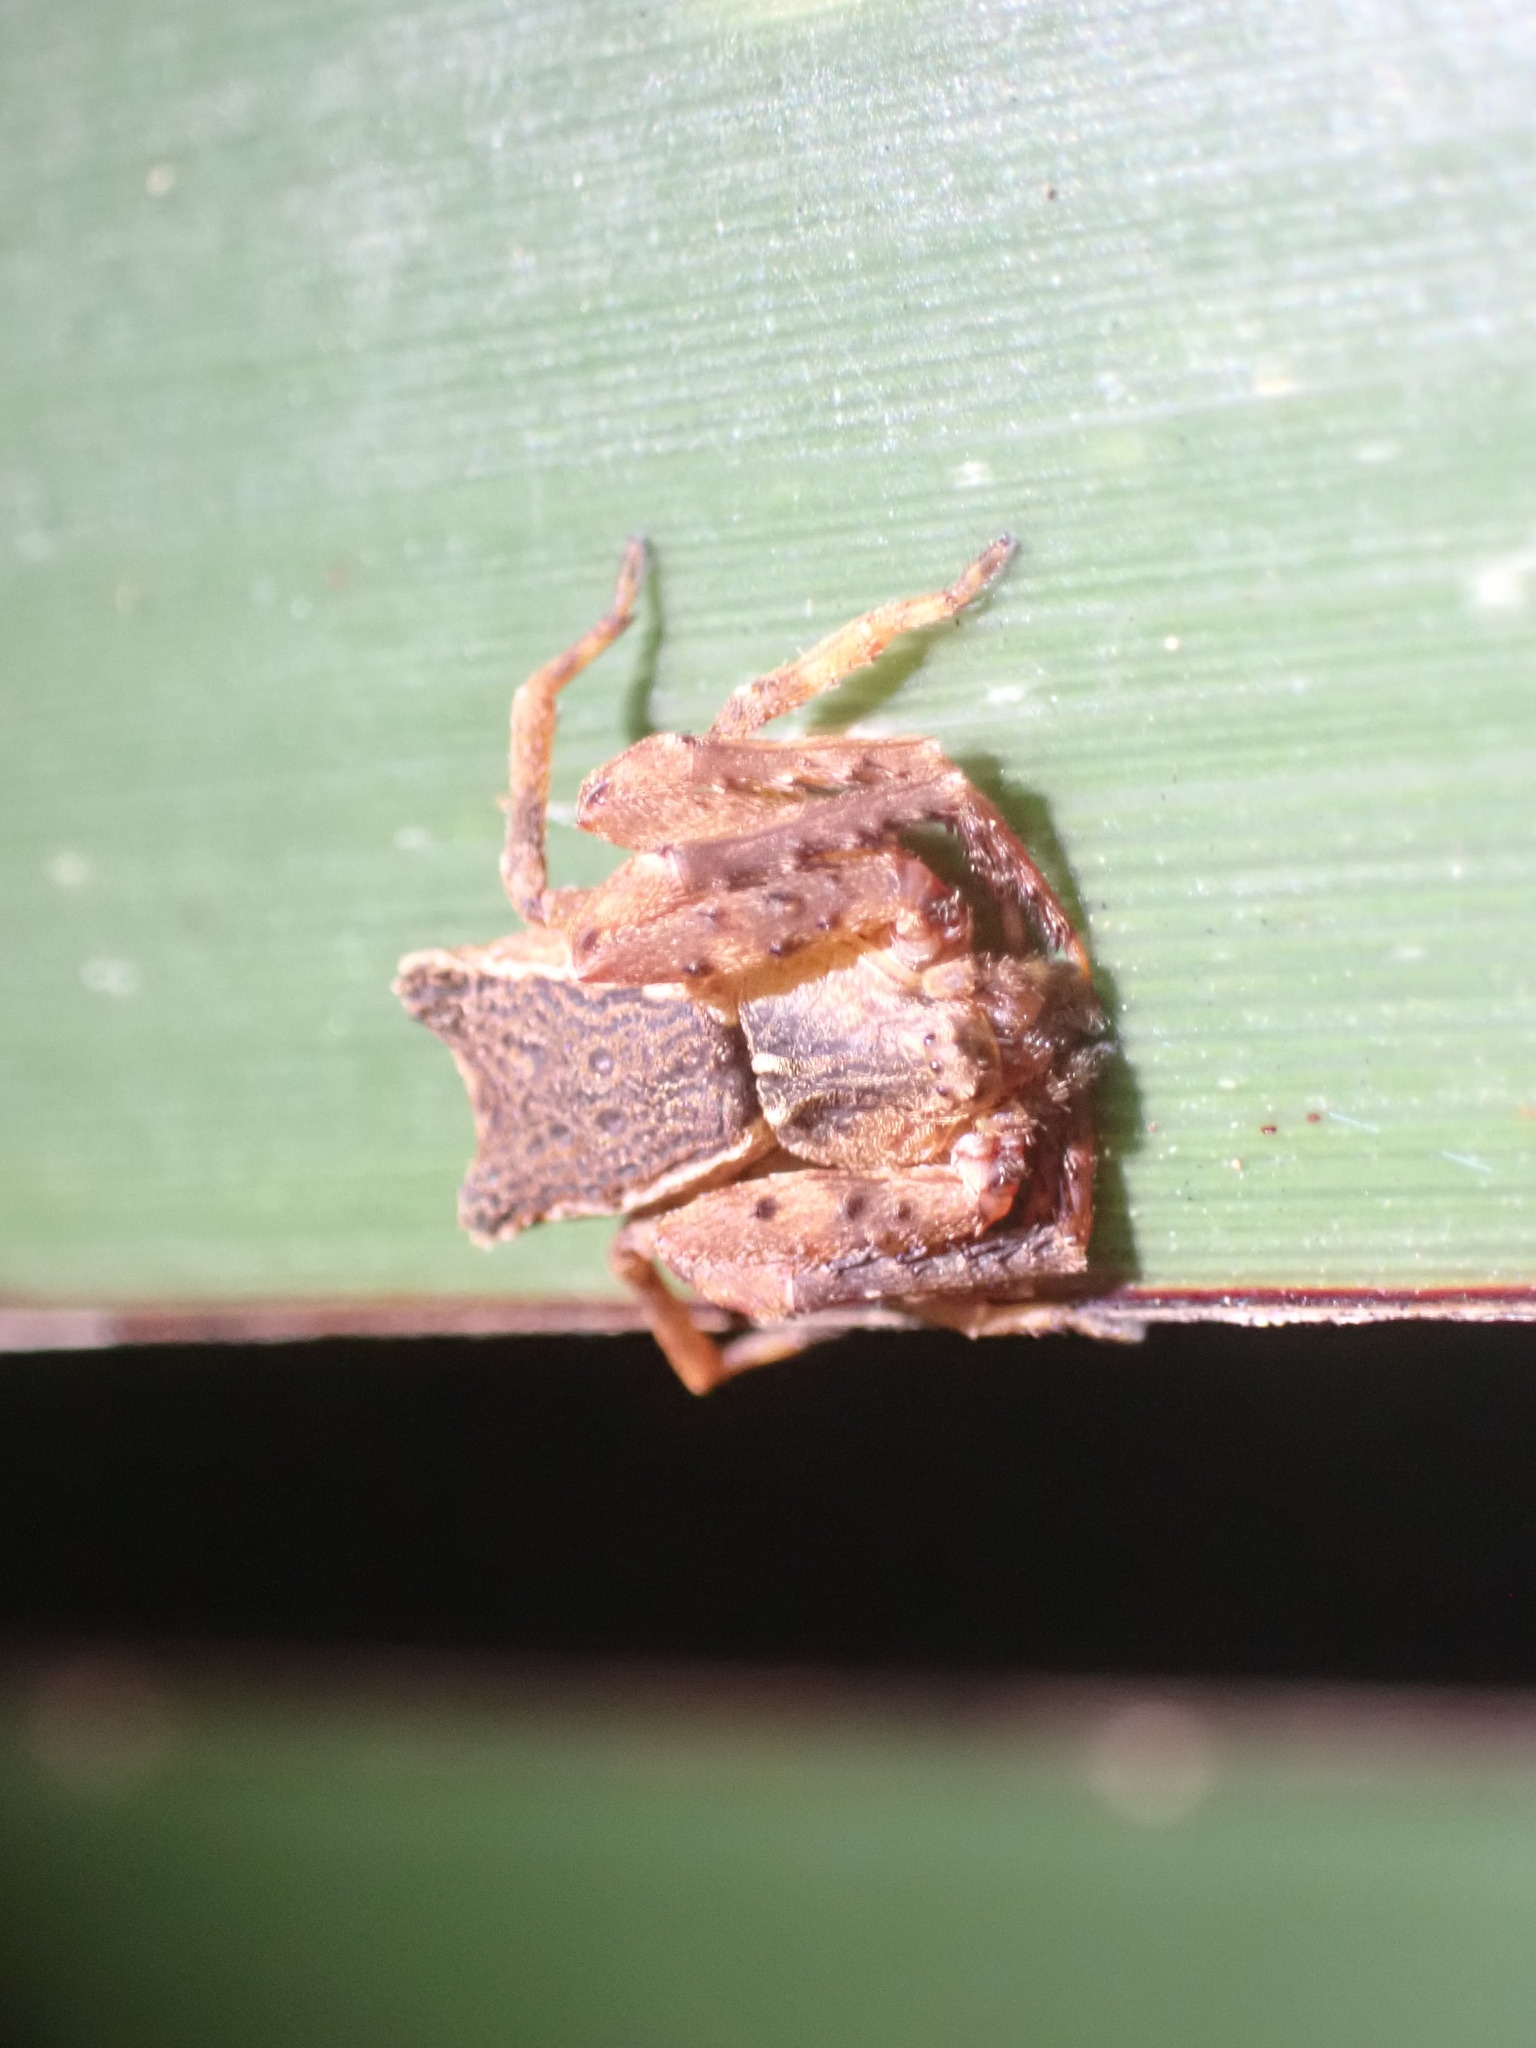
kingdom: Animalia
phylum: Arthropoda
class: Arachnida
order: Araneae
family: Thomisidae
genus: Sidymella
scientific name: Sidymella angularis
